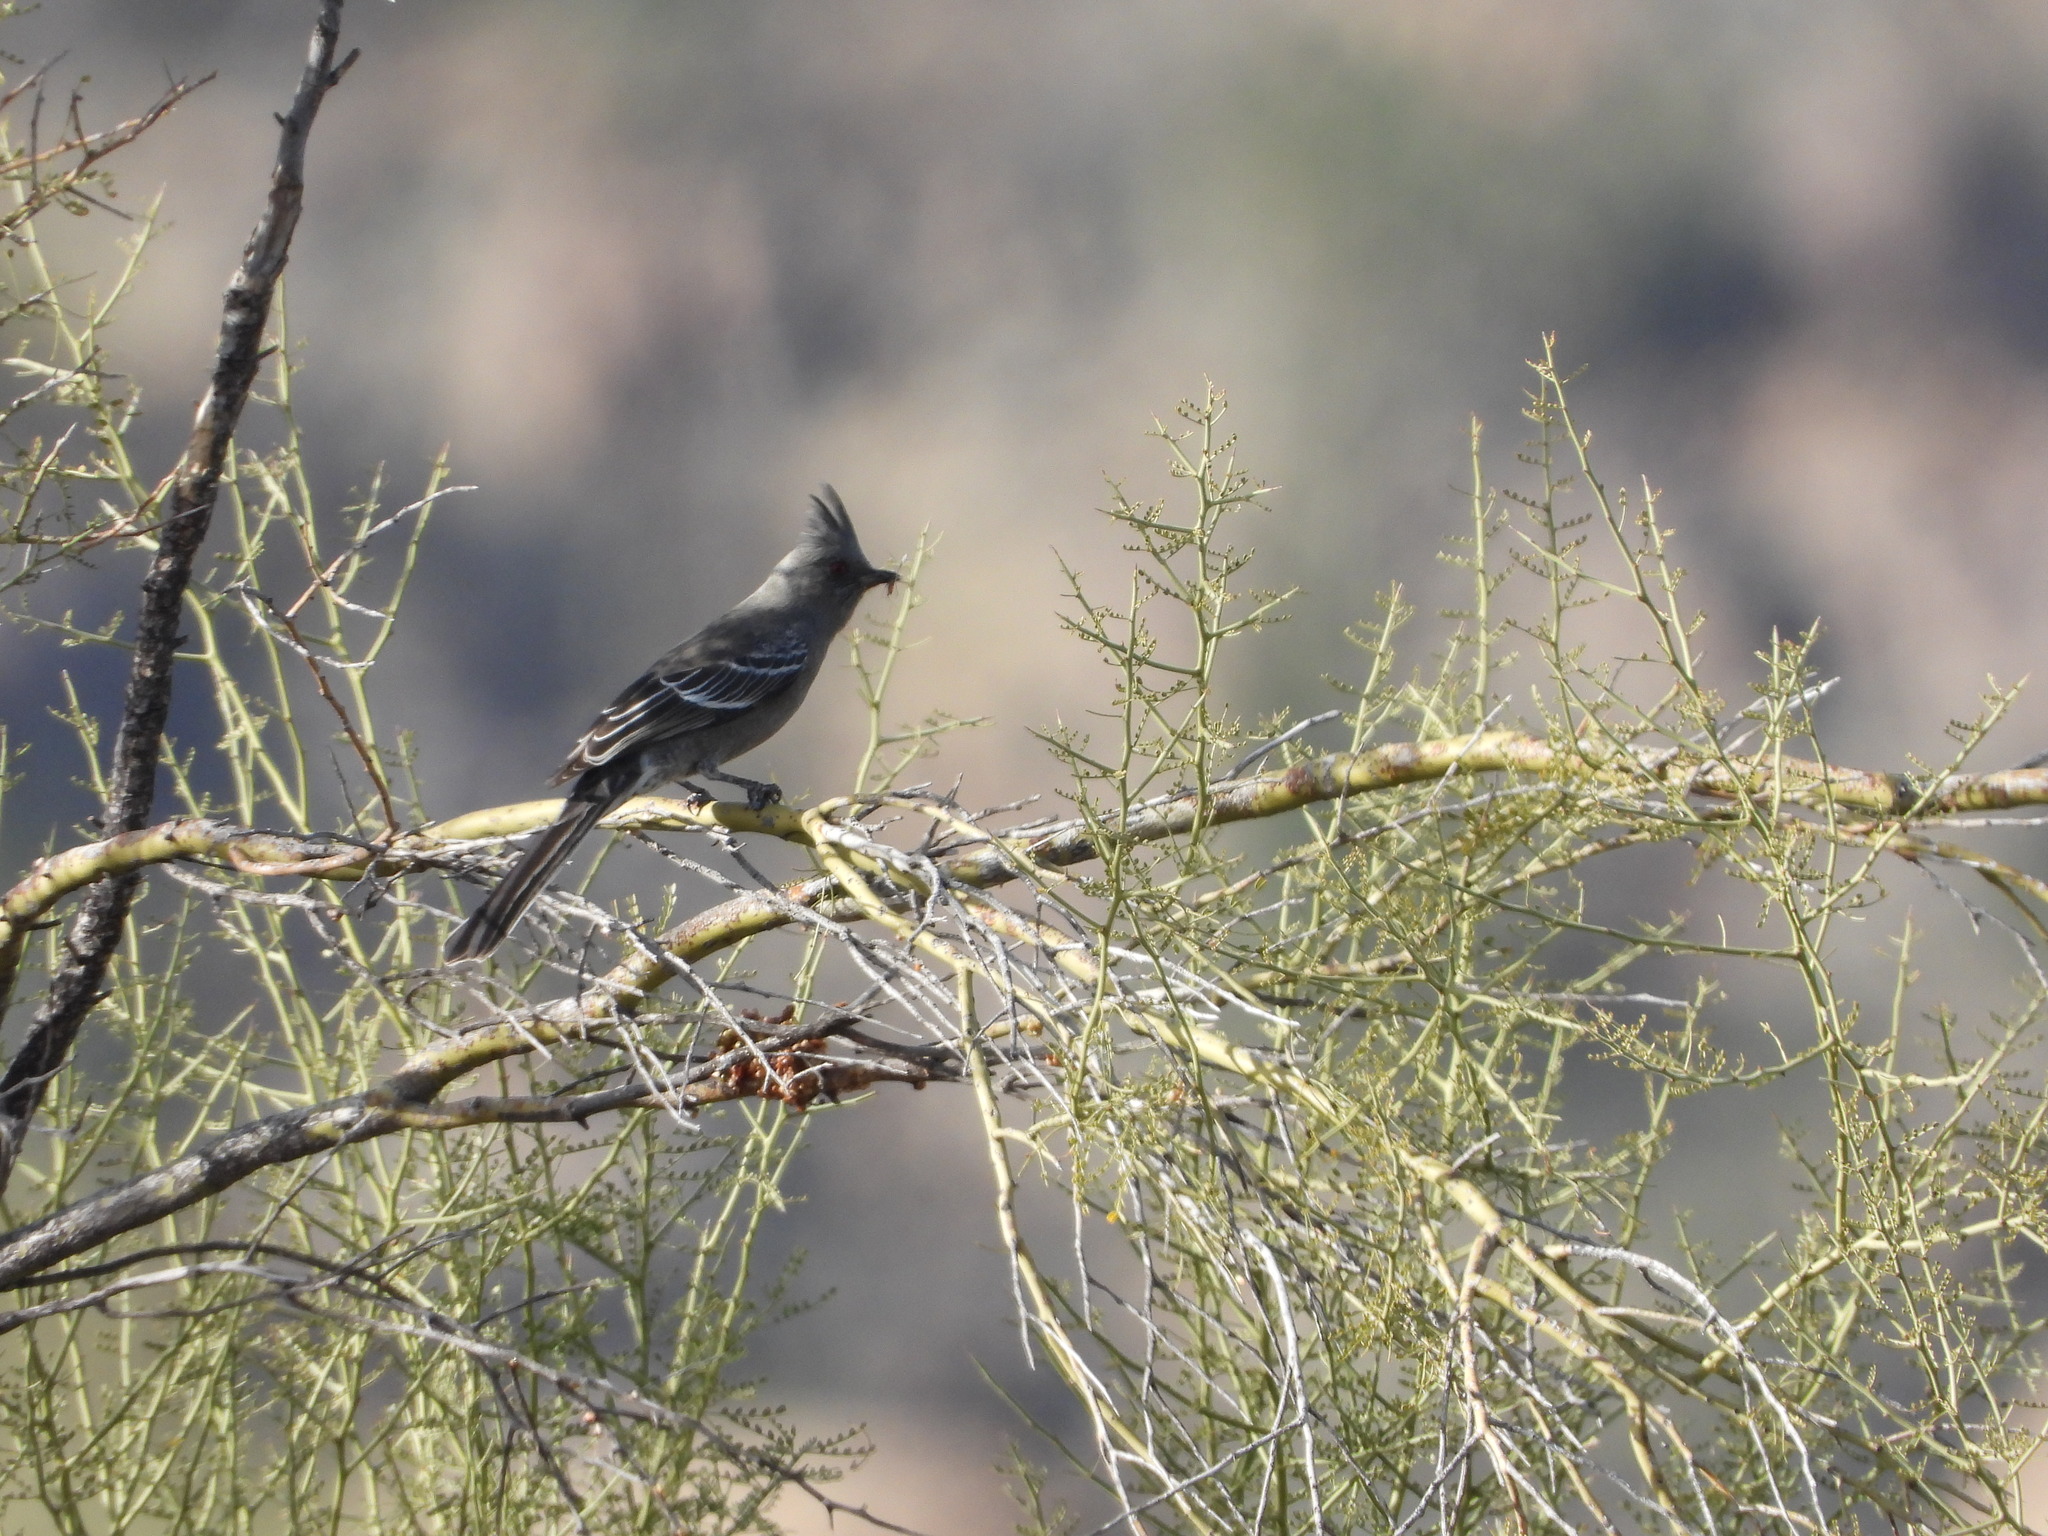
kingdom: Animalia
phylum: Chordata
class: Aves
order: Passeriformes
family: Ptilogonatidae
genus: Phainopepla
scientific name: Phainopepla nitens
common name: Phainopepla
